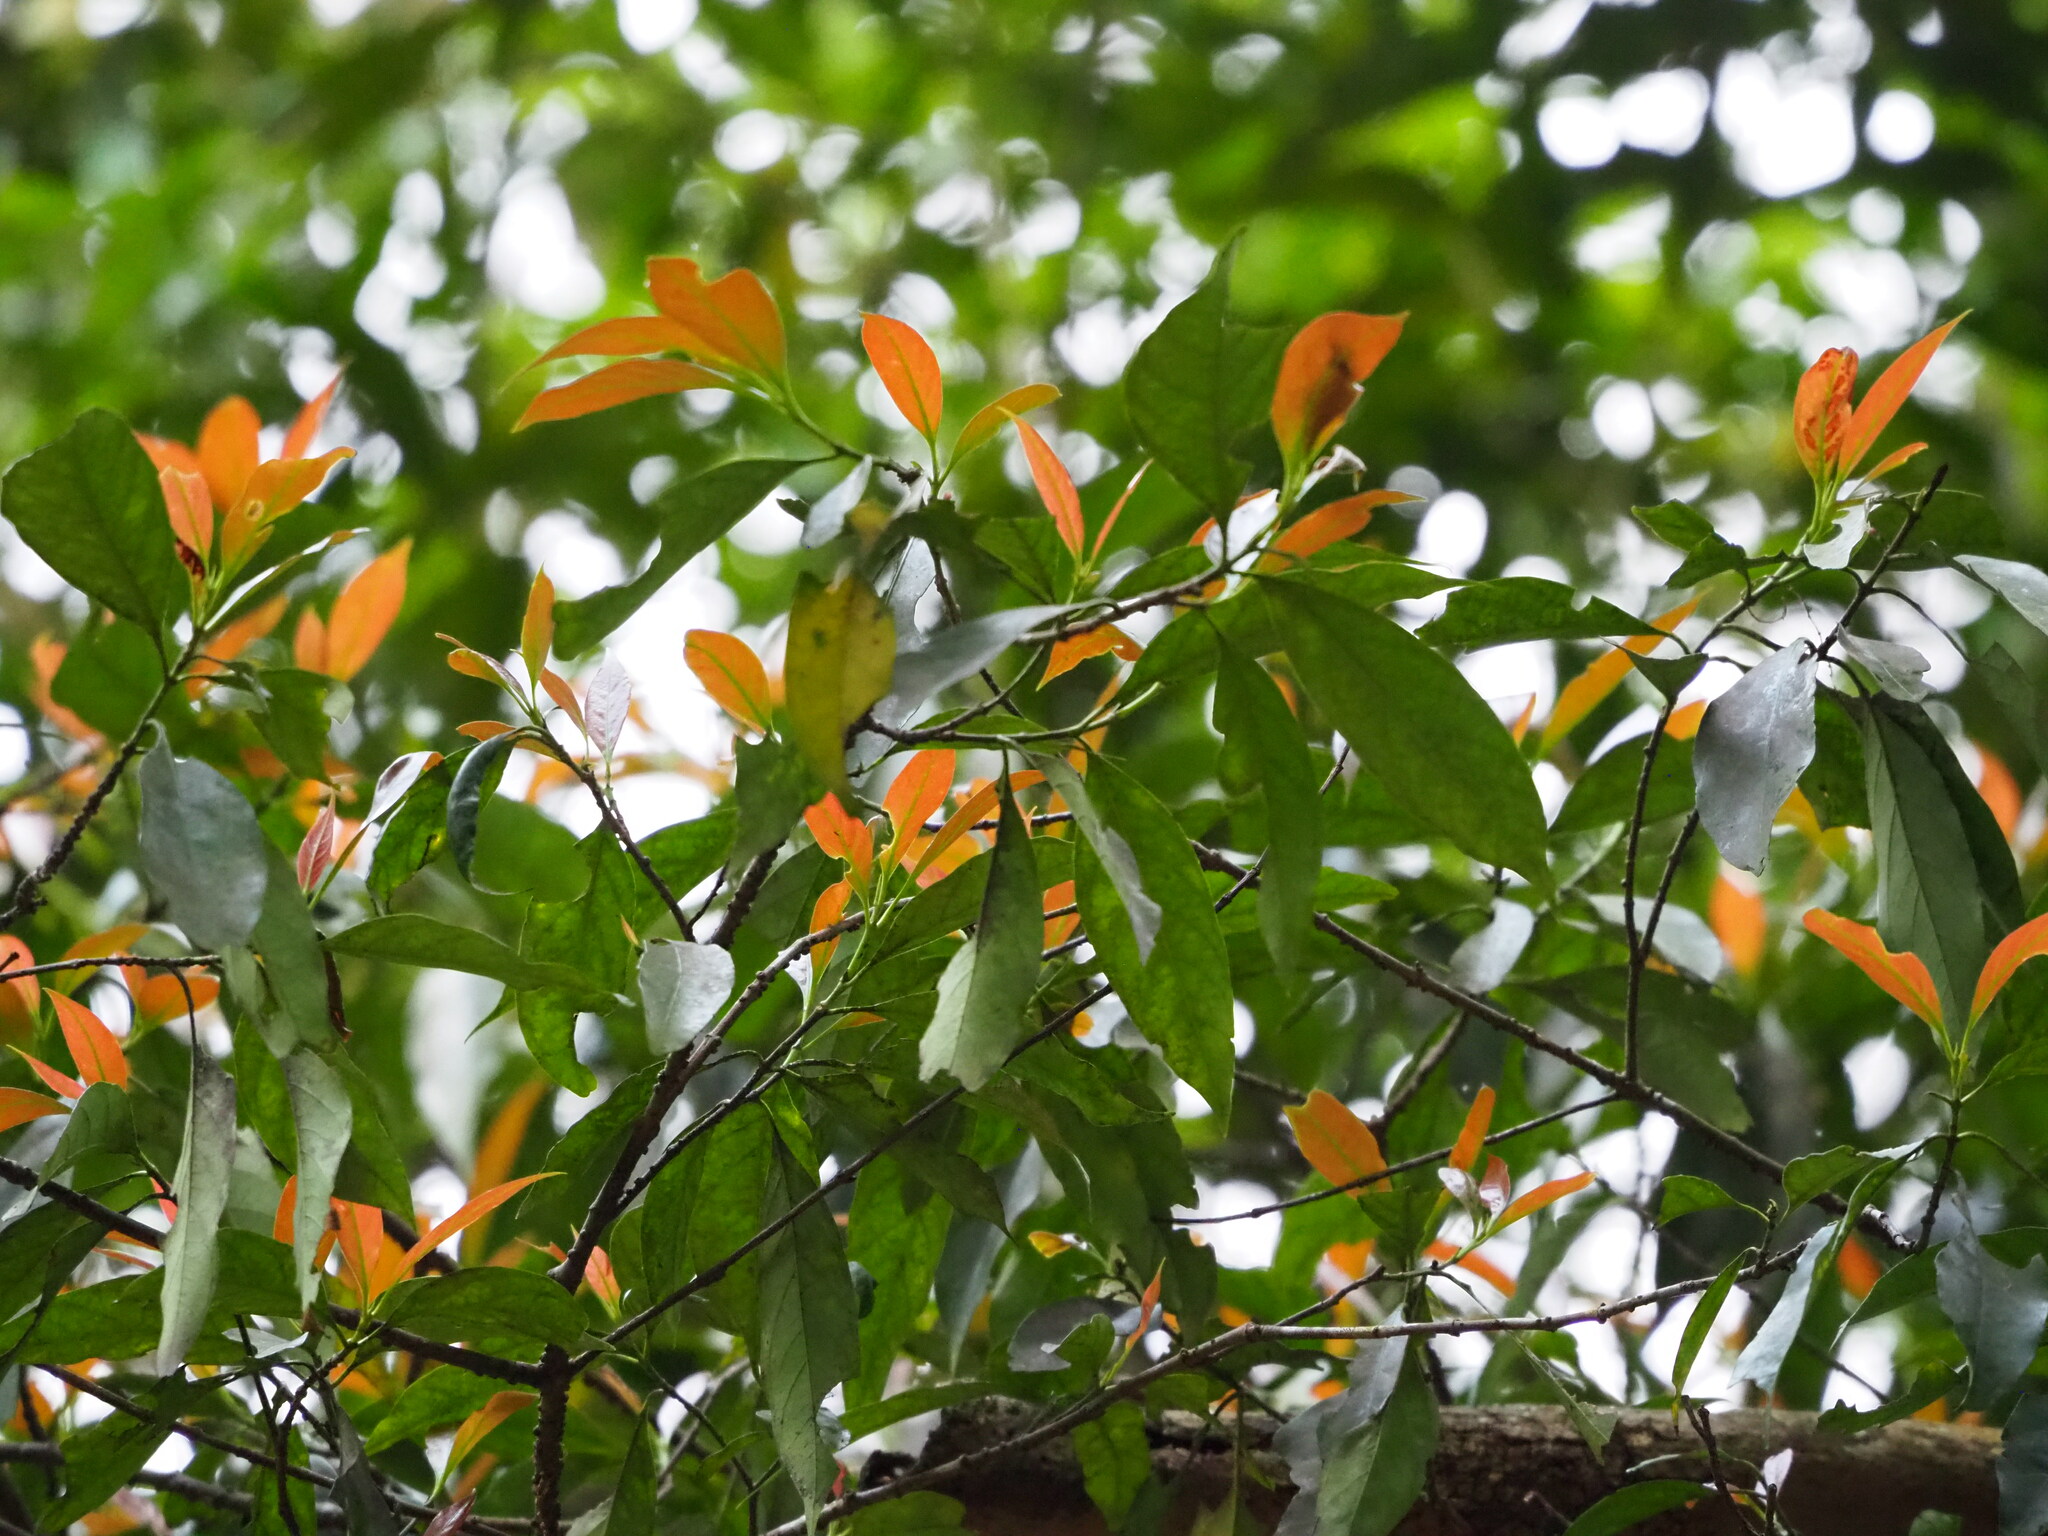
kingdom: Plantae
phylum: Tracheophyta
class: Magnoliopsida
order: Gentianales
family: Rubiaceae
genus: Aidia
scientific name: Aidia cochinchinensis
